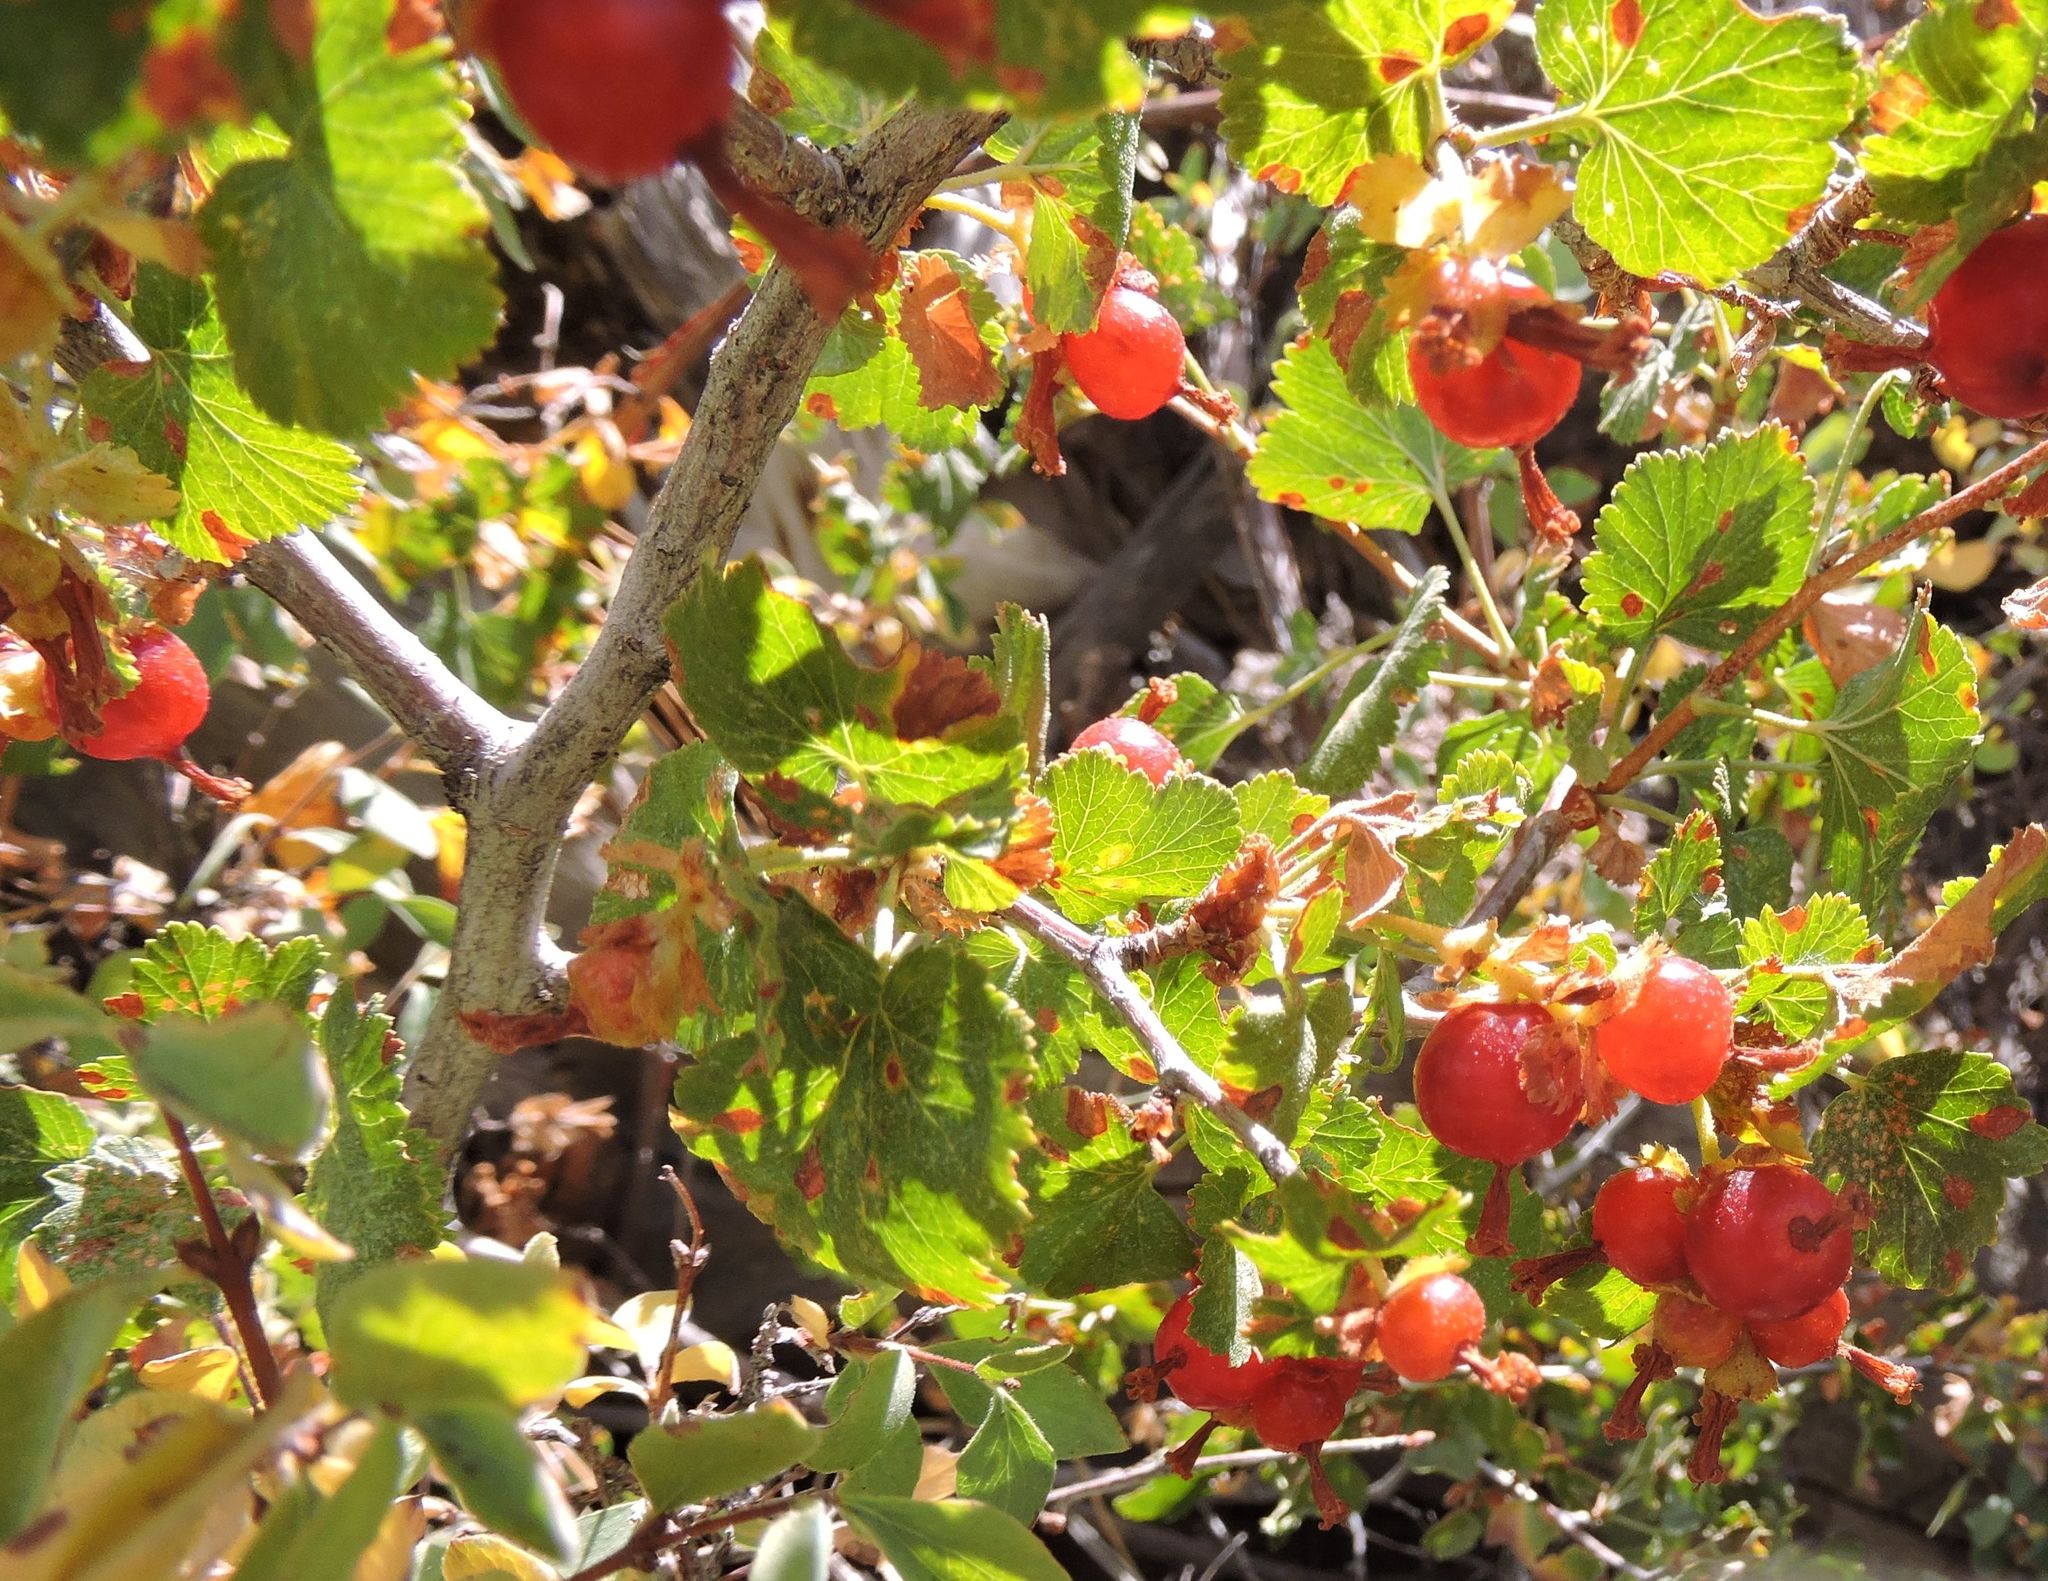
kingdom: Plantae
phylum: Tracheophyta
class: Magnoliopsida
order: Saxifragales
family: Grossulariaceae
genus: Ribes
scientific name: Ribes cereum
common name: Wax currant
